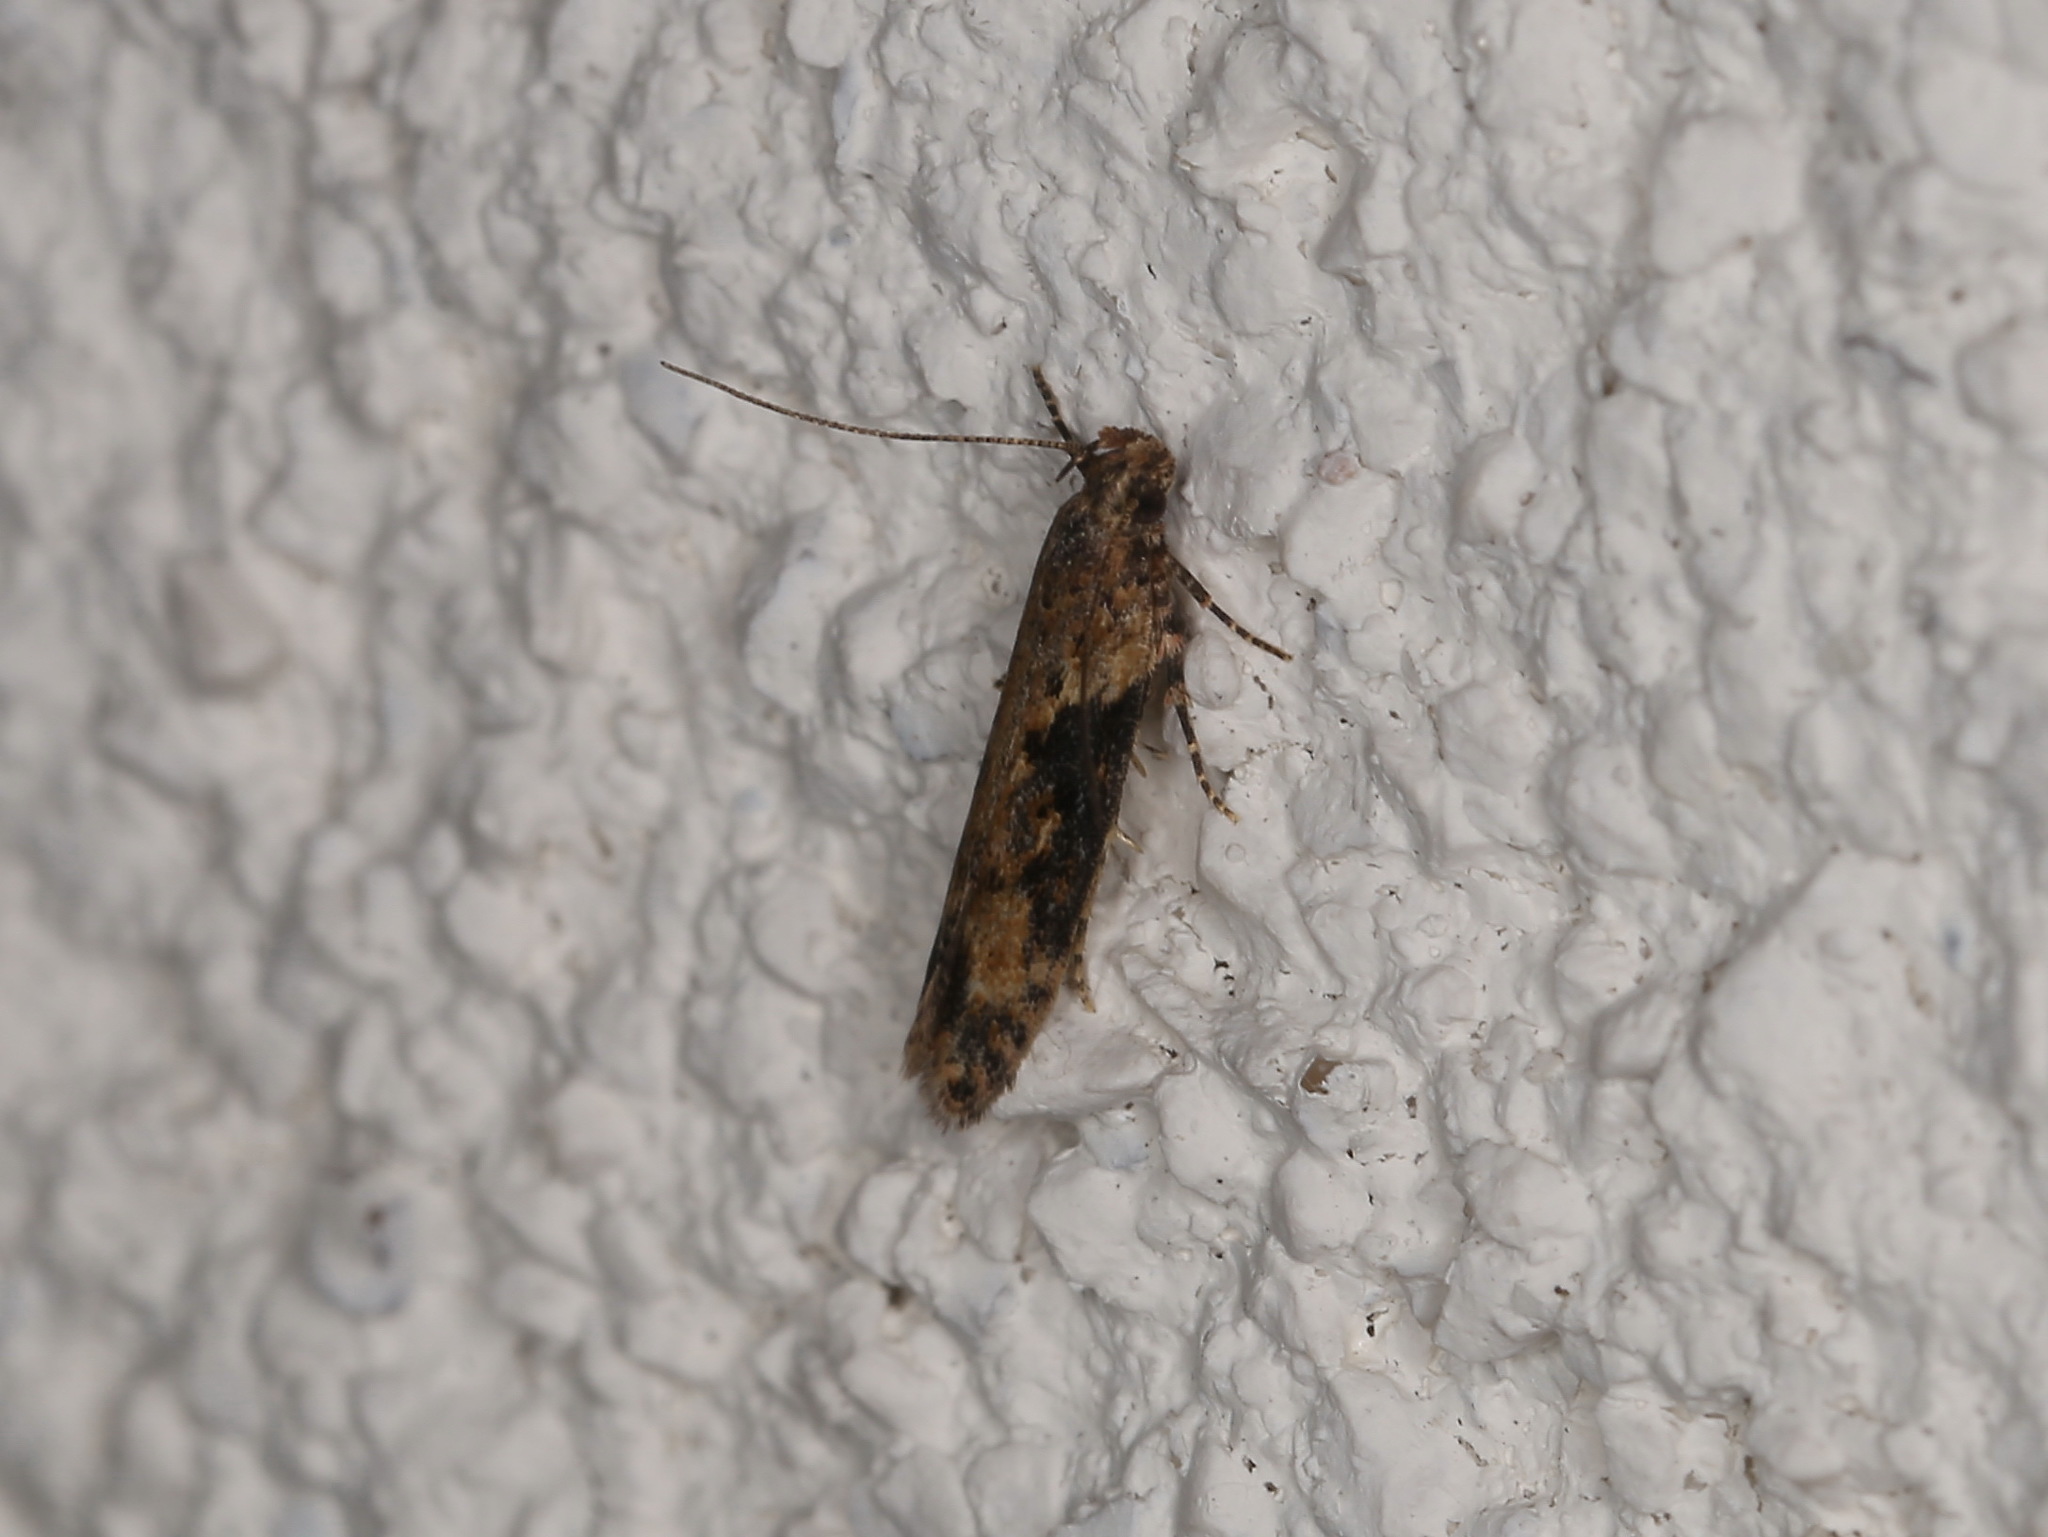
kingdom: Animalia
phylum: Arthropoda
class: Insecta
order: Lepidoptera
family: Gelechiidae
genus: Scrobipalpa
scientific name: Scrobipalpa costella
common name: Winter groundling
